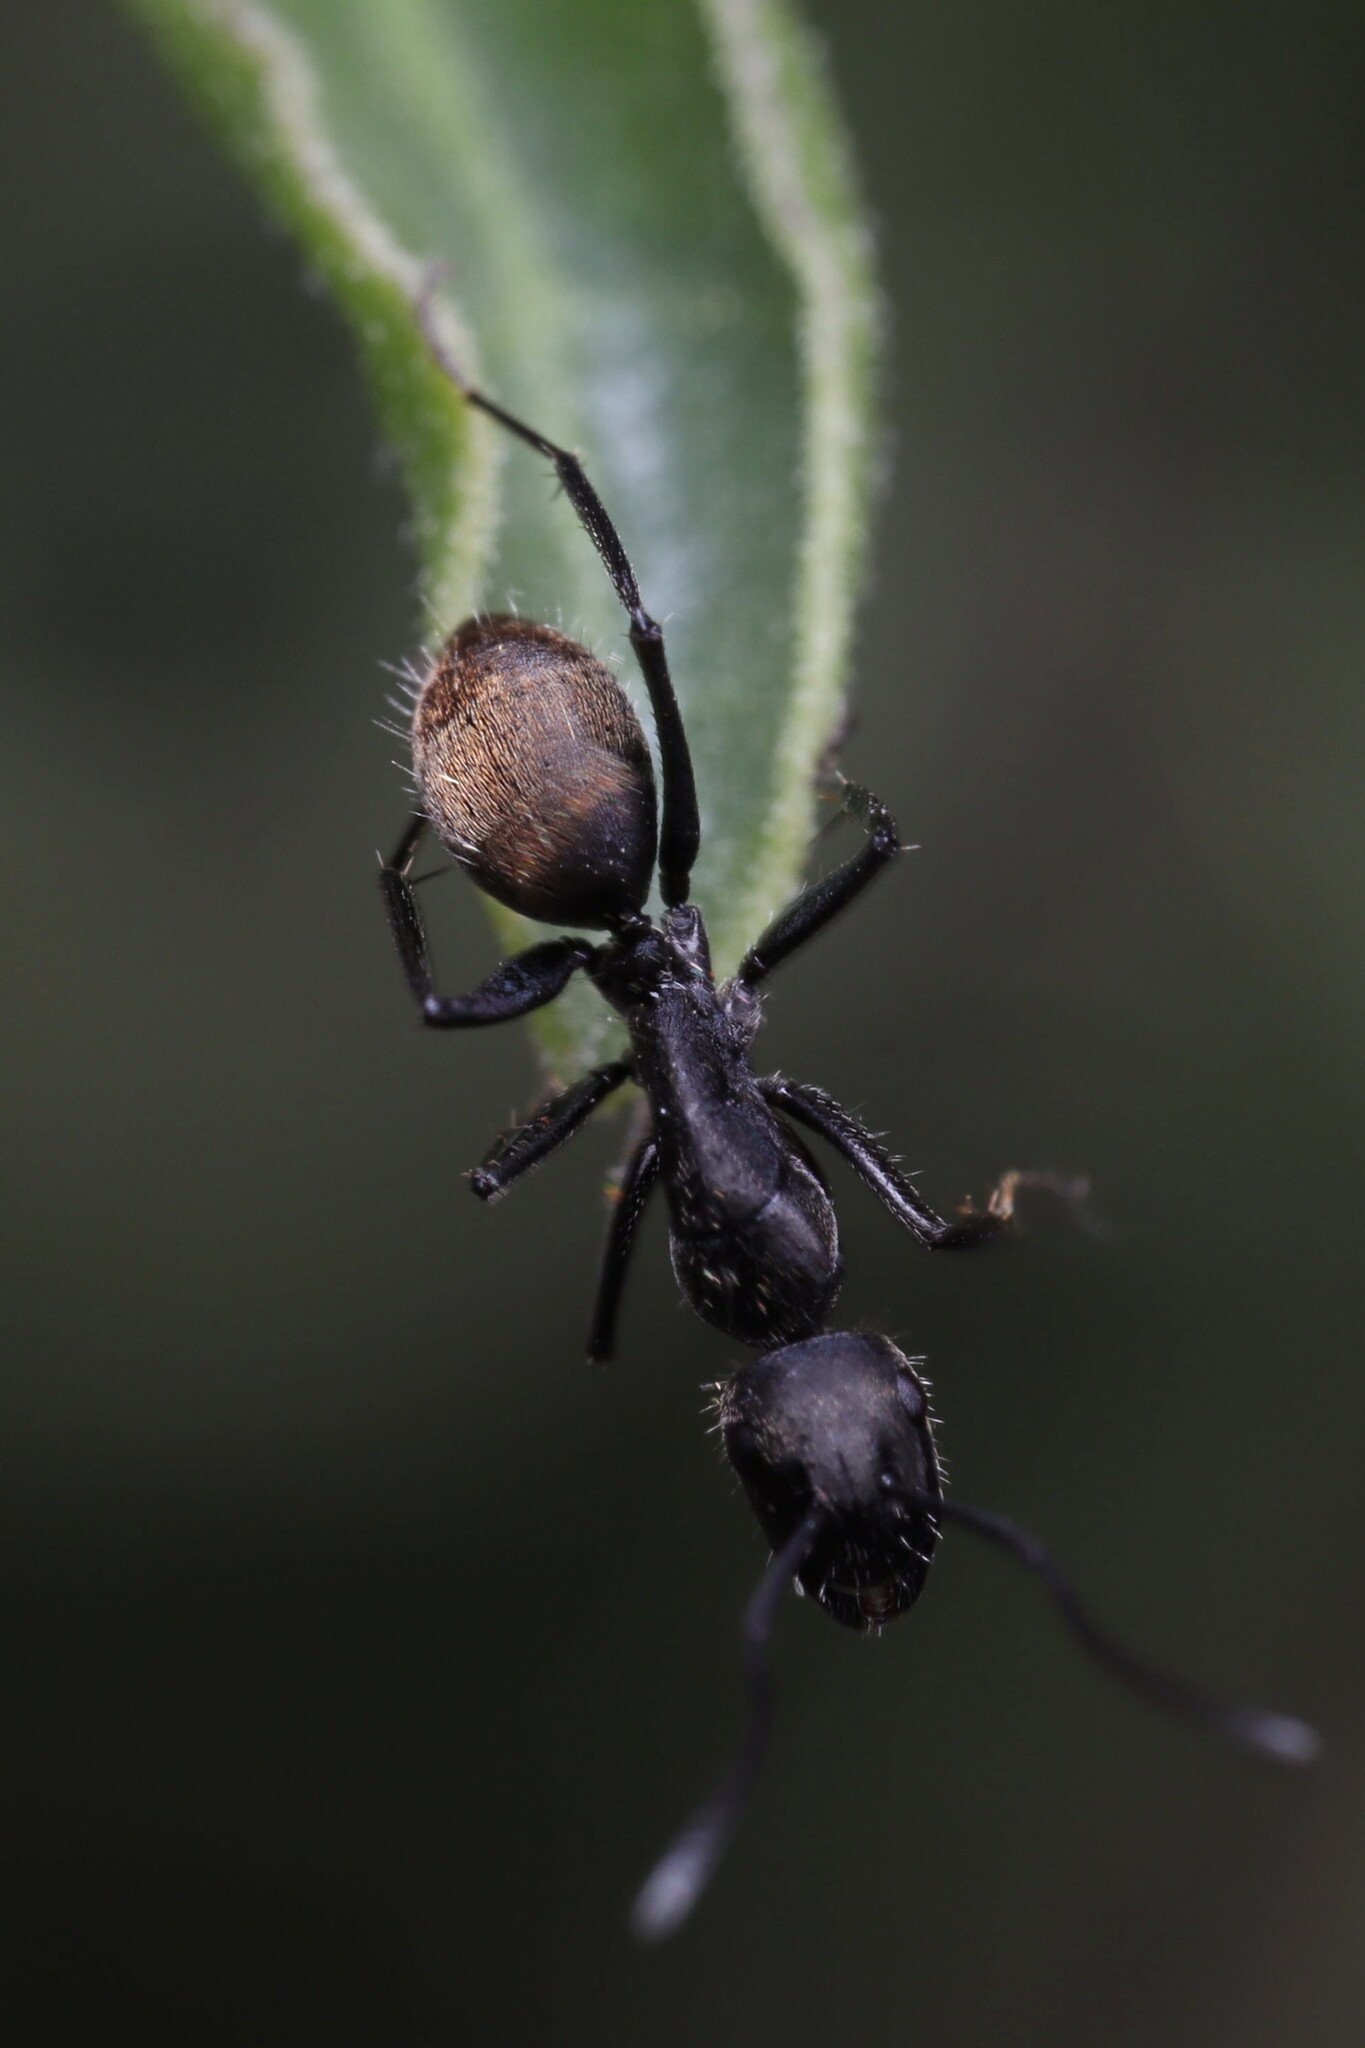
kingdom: Animalia
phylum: Arthropoda
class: Insecta
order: Hymenoptera
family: Formicidae
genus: Camponotus
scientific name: Camponotus chilensis
